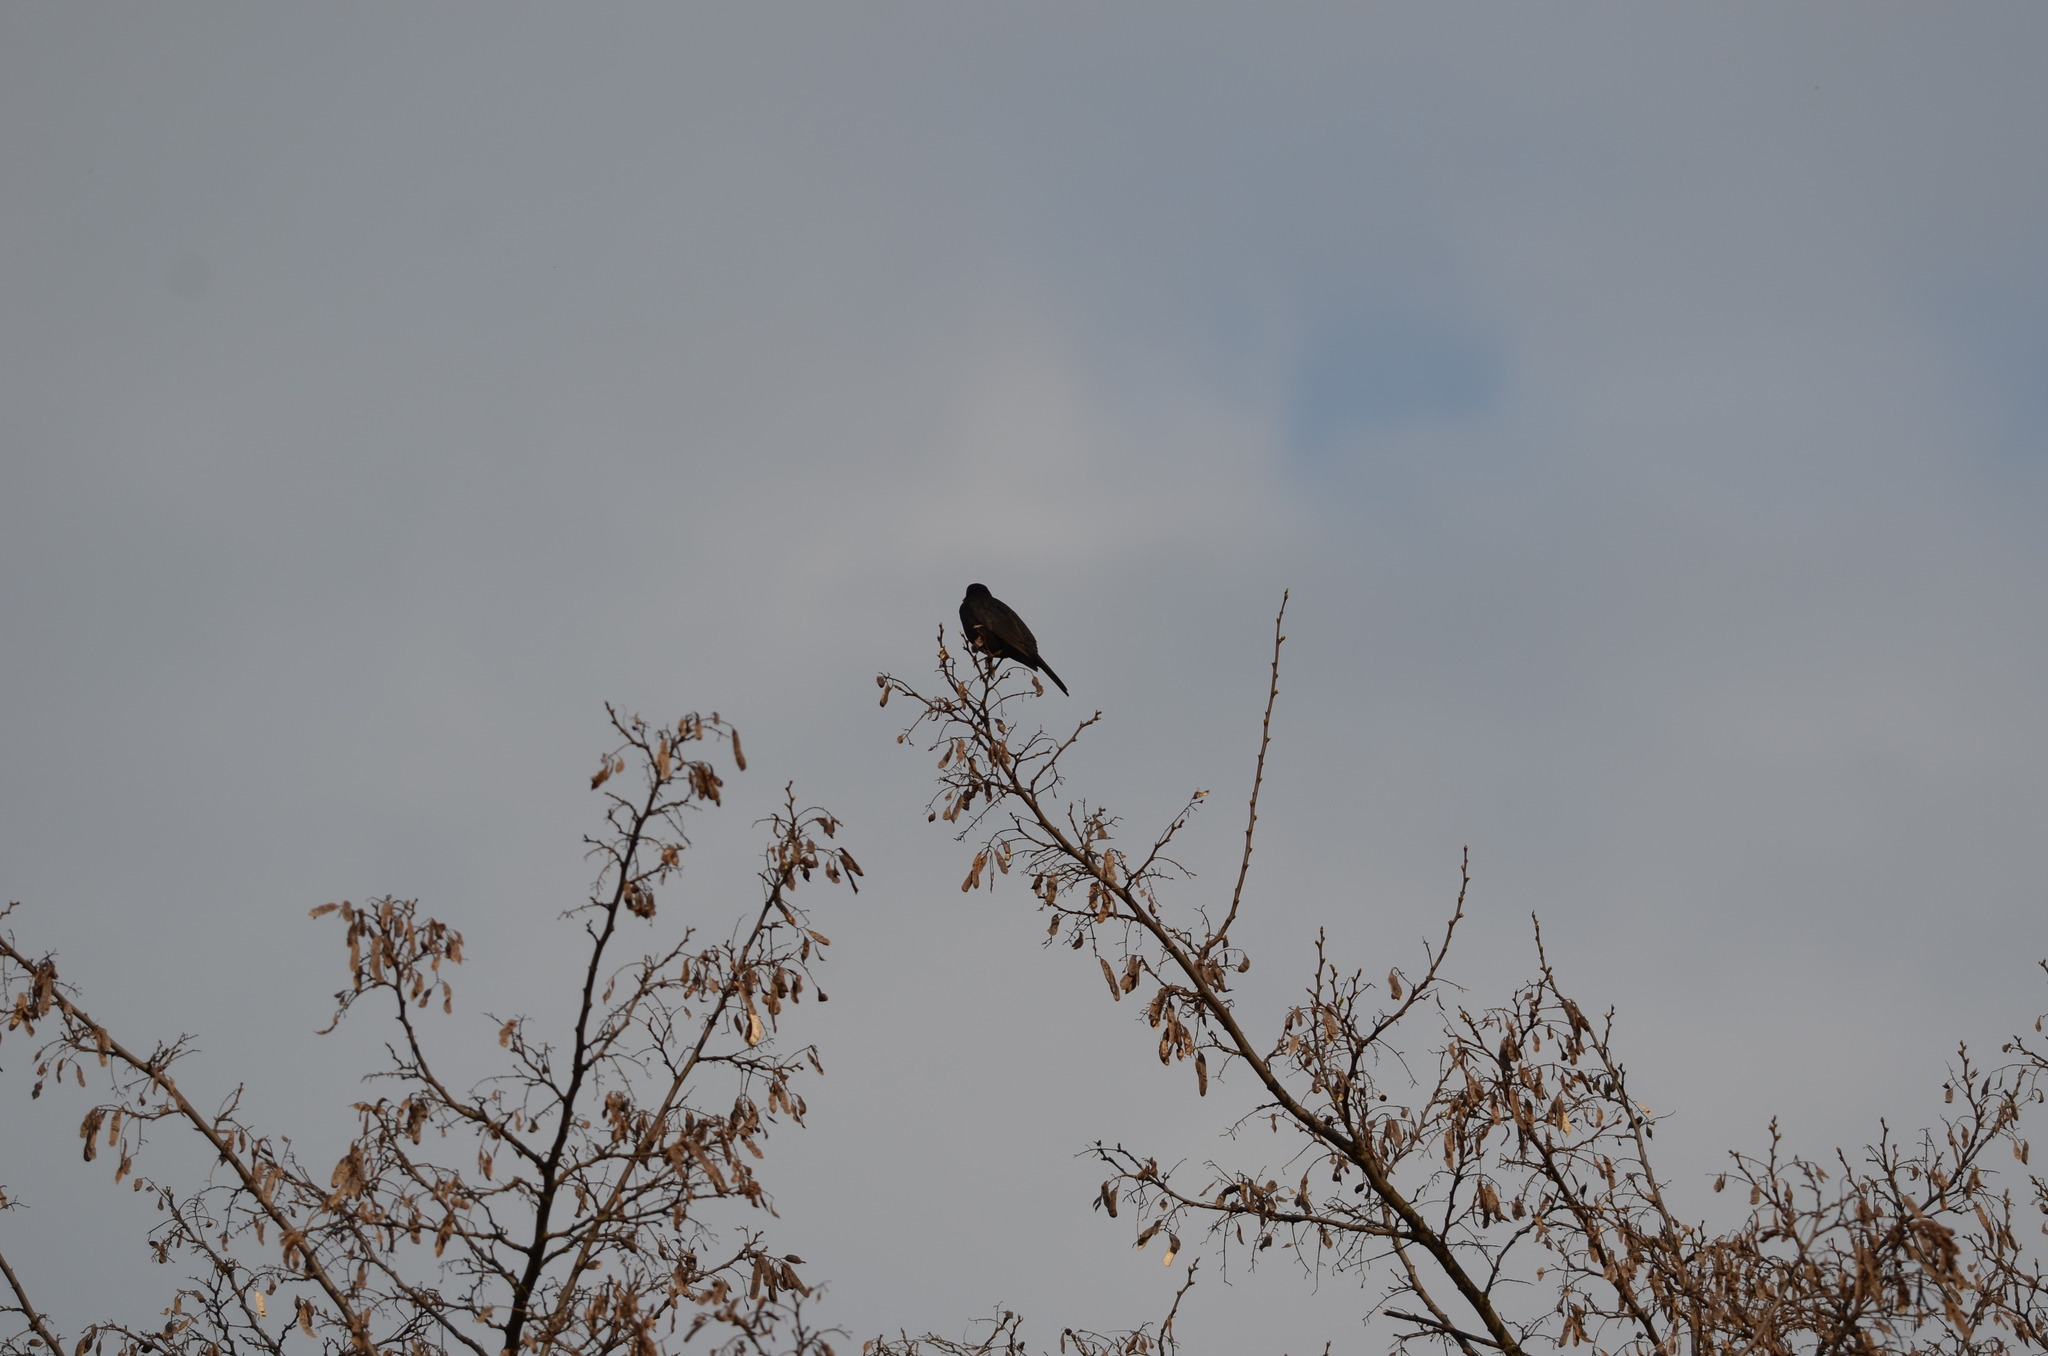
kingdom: Animalia
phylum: Chordata
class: Aves
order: Passeriformes
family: Turdidae
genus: Turdus
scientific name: Turdus merula
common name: Common blackbird
